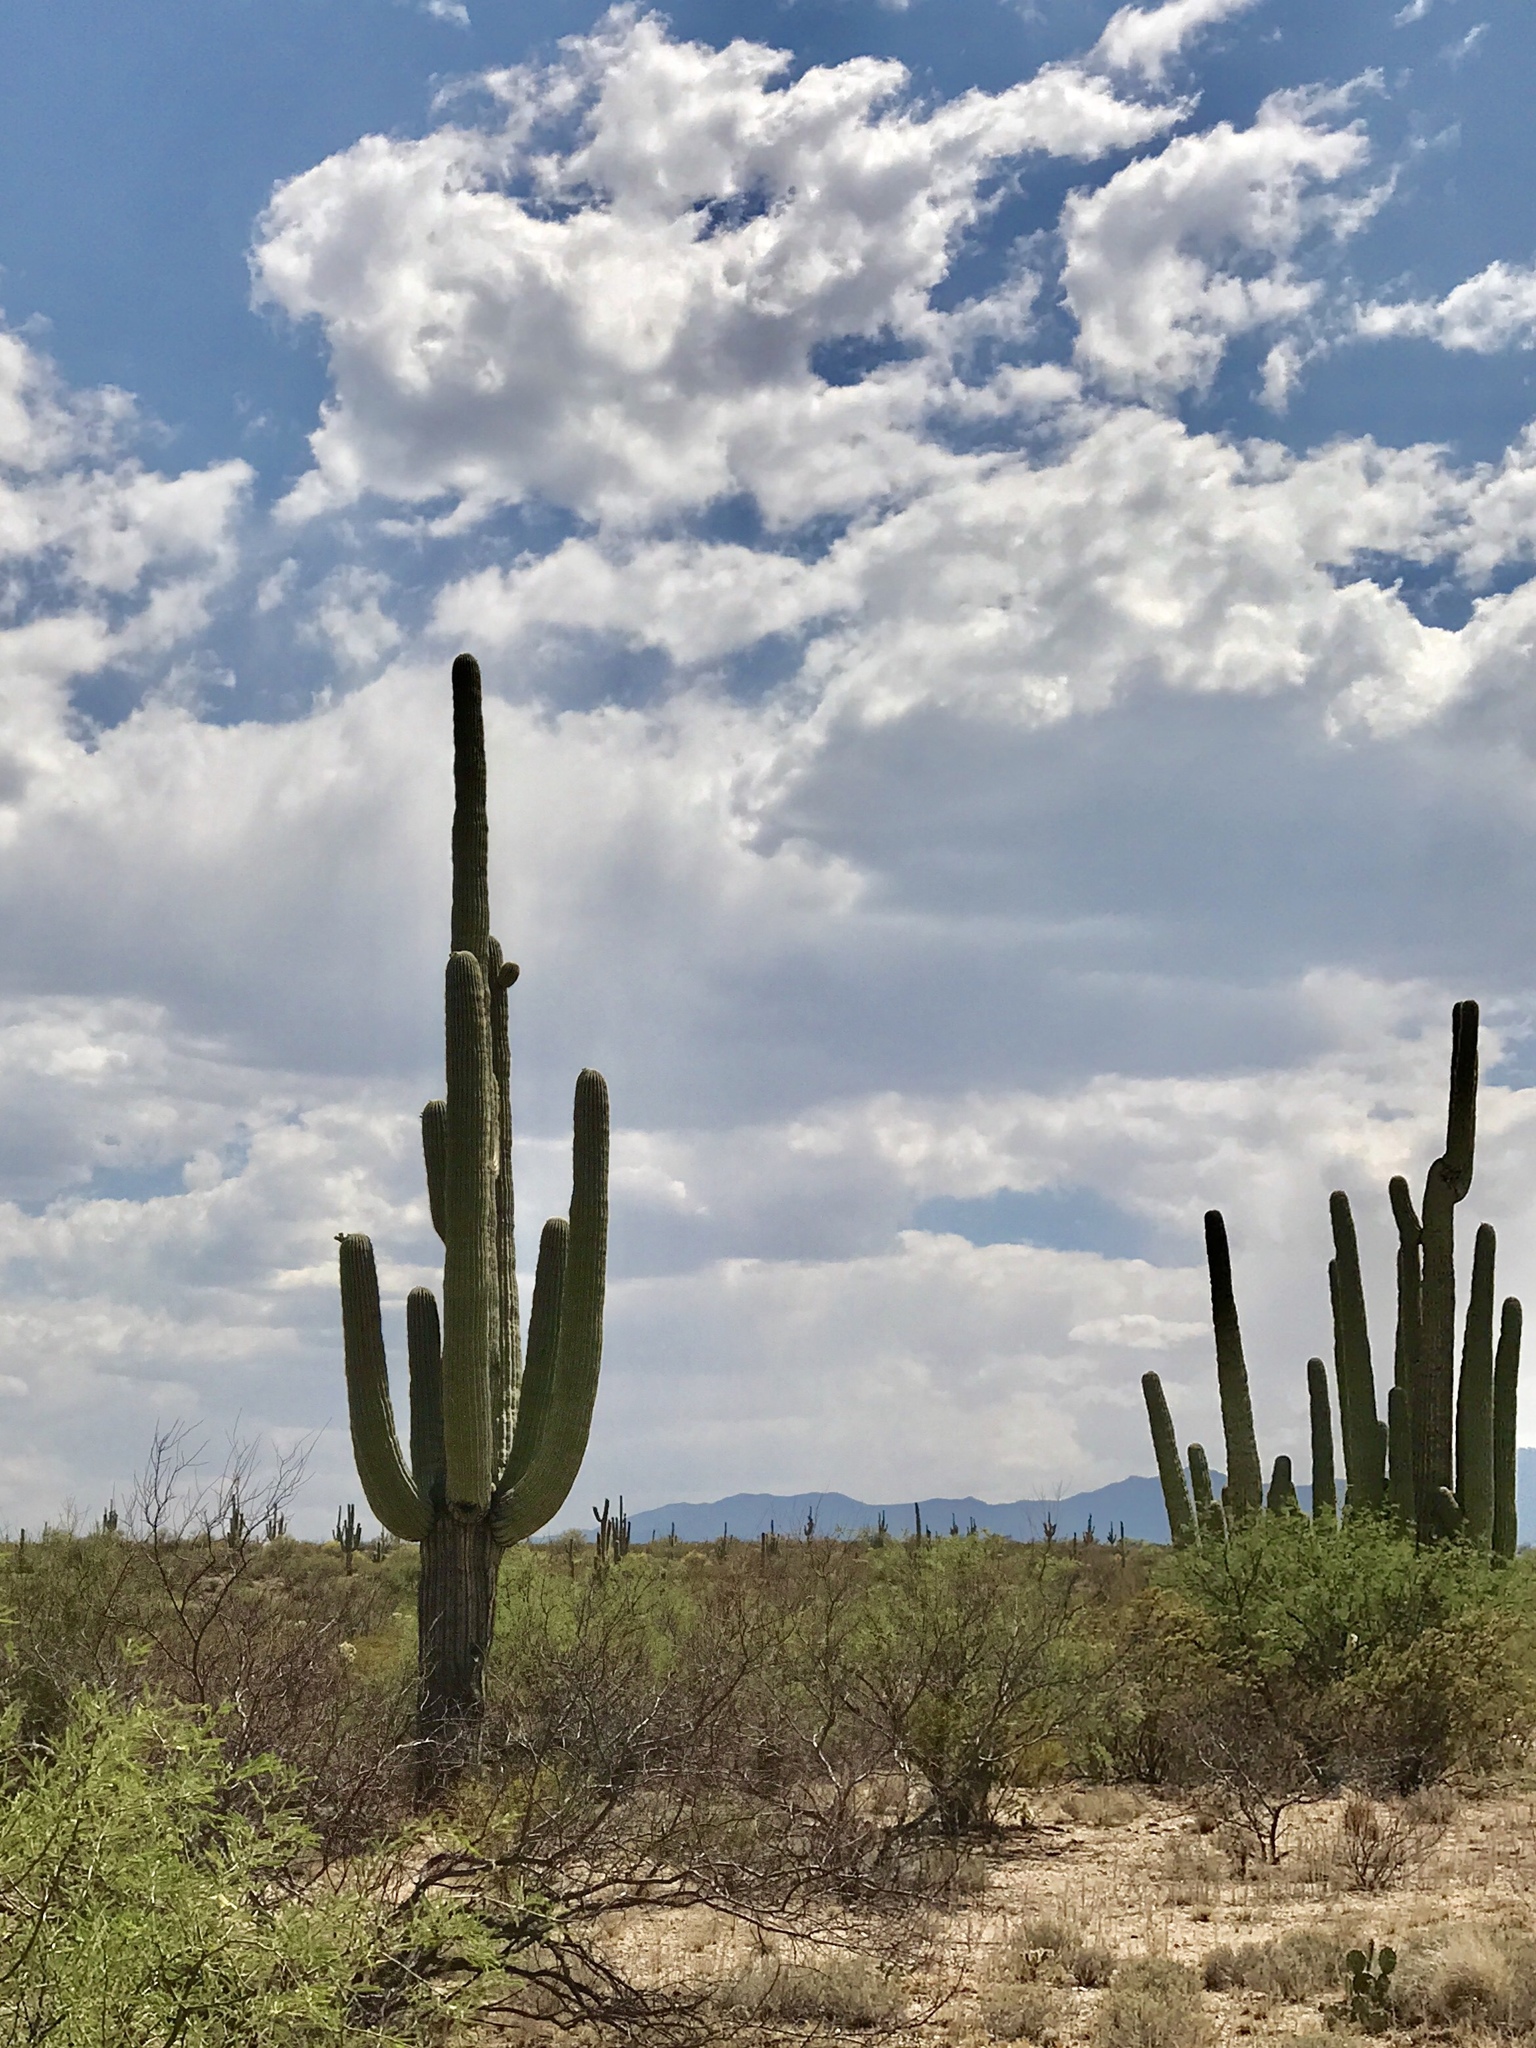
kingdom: Plantae
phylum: Tracheophyta
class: Magnoliopsida
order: Caryophyllales
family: Cactaceae
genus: Carnegiea
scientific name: Carnegiea gigantea
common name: Saguaro
